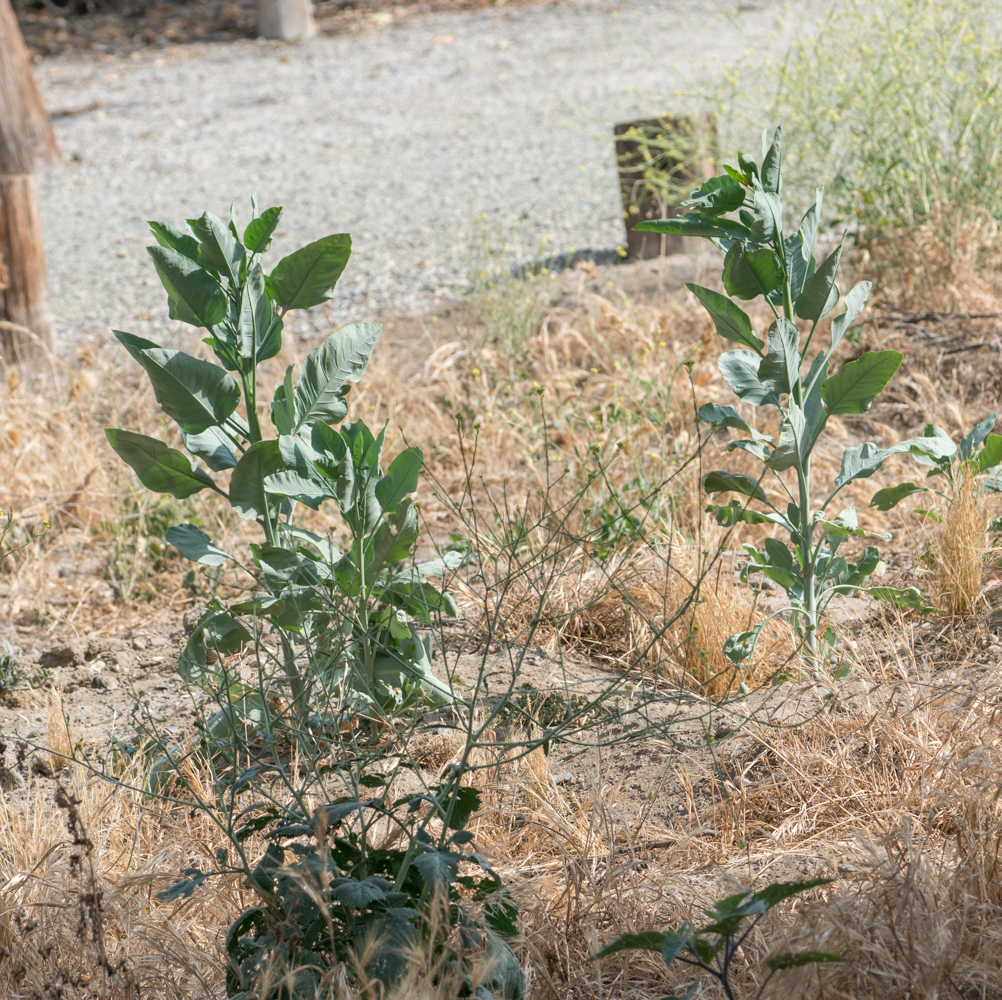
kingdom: Plantae
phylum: Tracheophyta
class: Magnoliopsida
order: Solanales
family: Solanaceae
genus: Nicotiana
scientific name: Nicotiana glauca
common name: Tree tobacco
